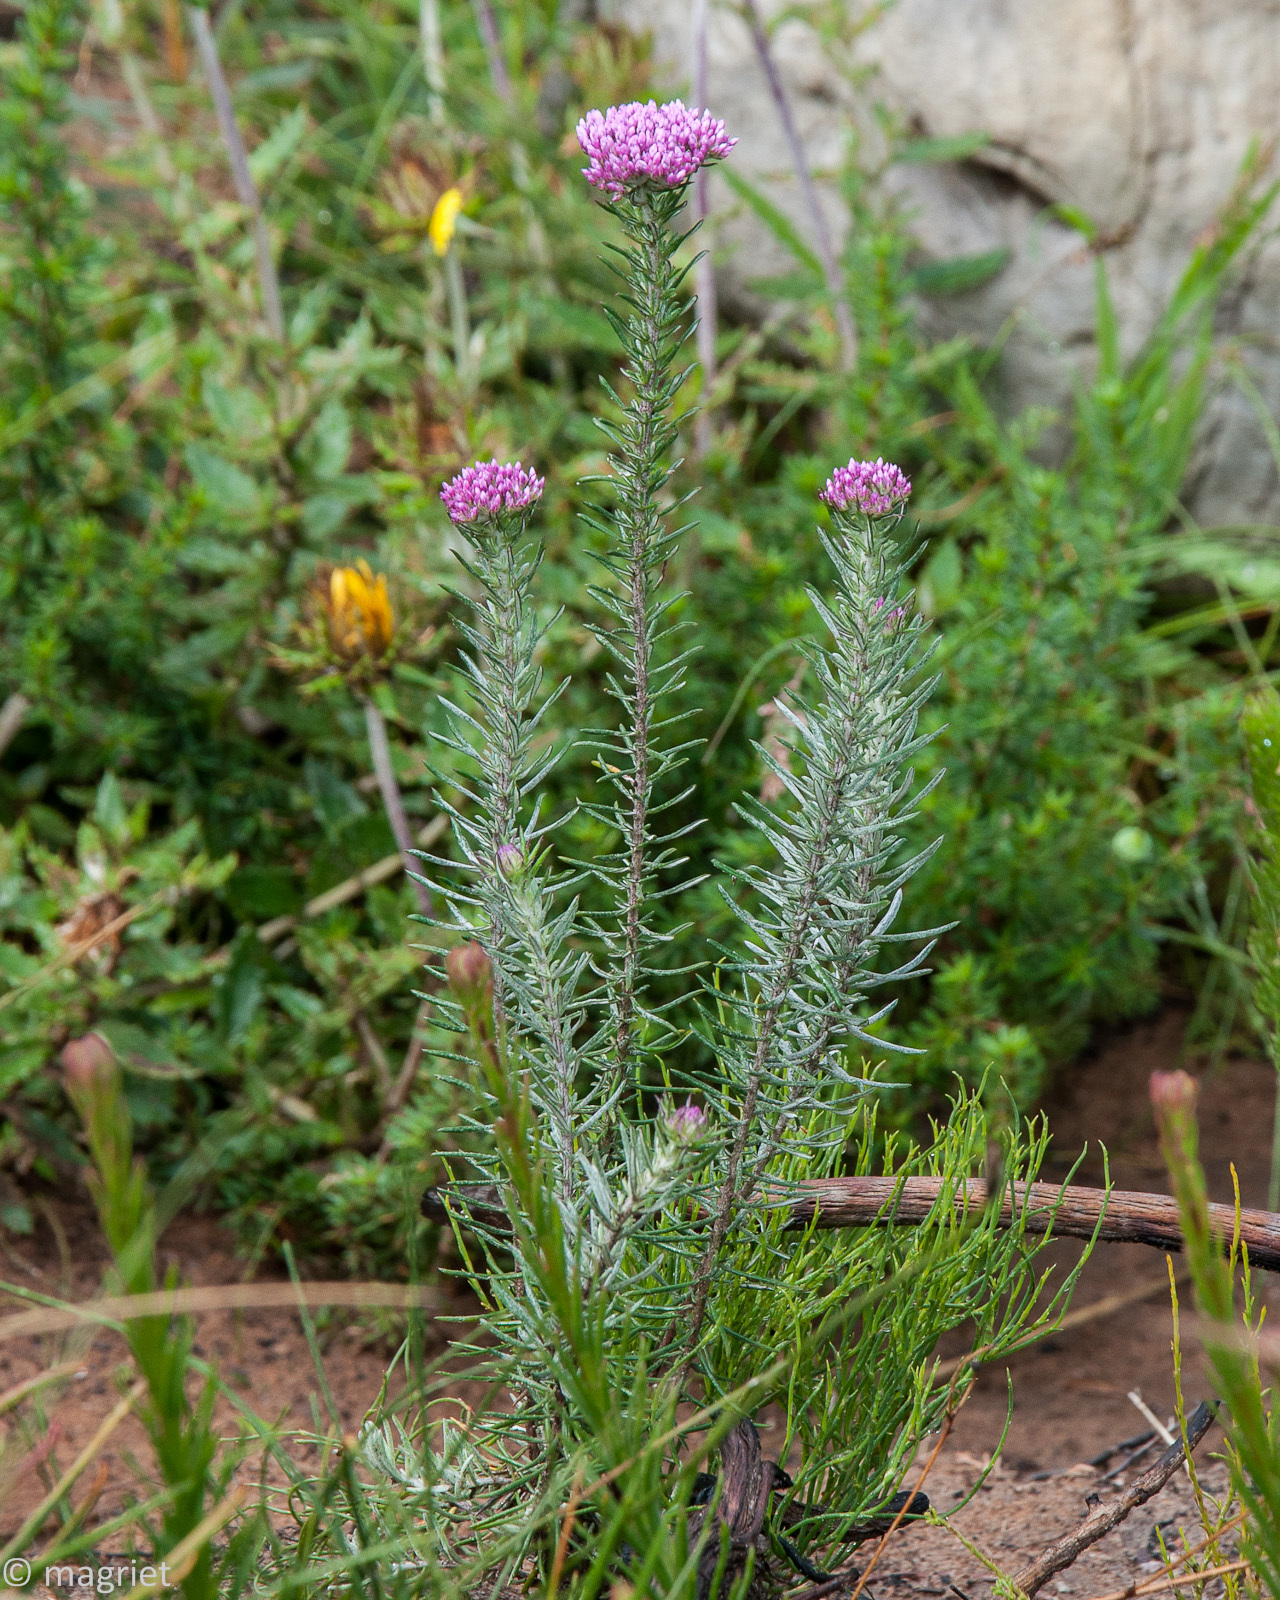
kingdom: Plantae
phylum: Tracheophyta
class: Magnoliopsida
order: Asterales
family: Asteraceae
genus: Metalasia
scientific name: Metalasia erubescens
